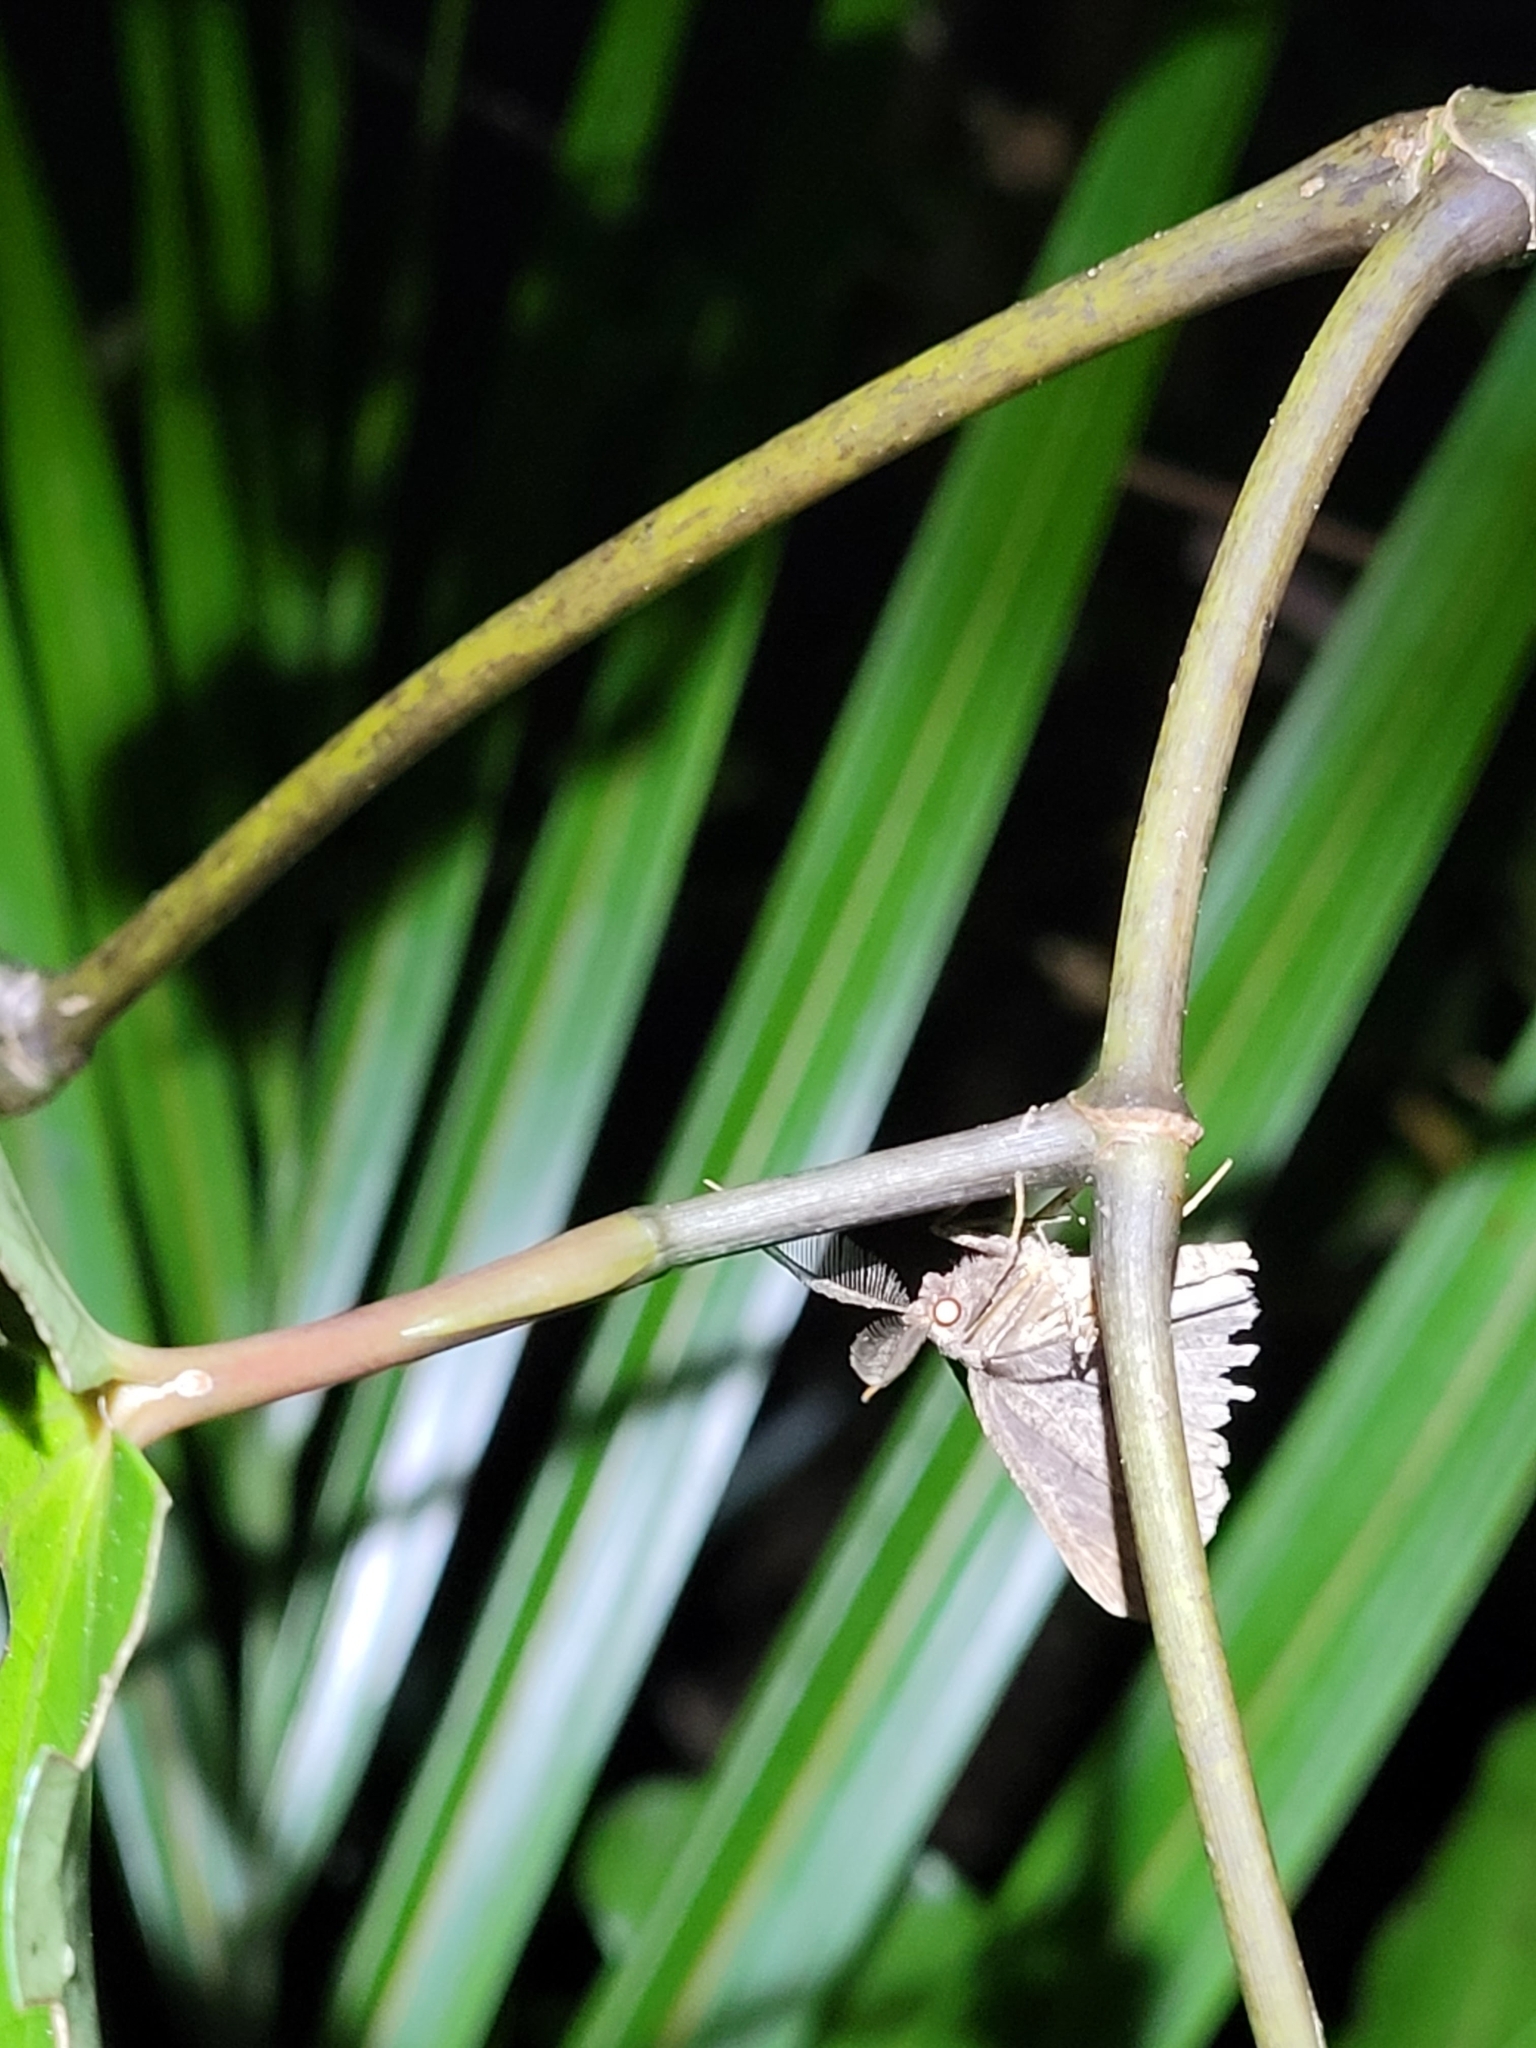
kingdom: Animalia
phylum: Arthropoda
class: Insecta
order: Lepidoptera
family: Geometridae
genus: Cleora
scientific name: Cleora scriptaria
